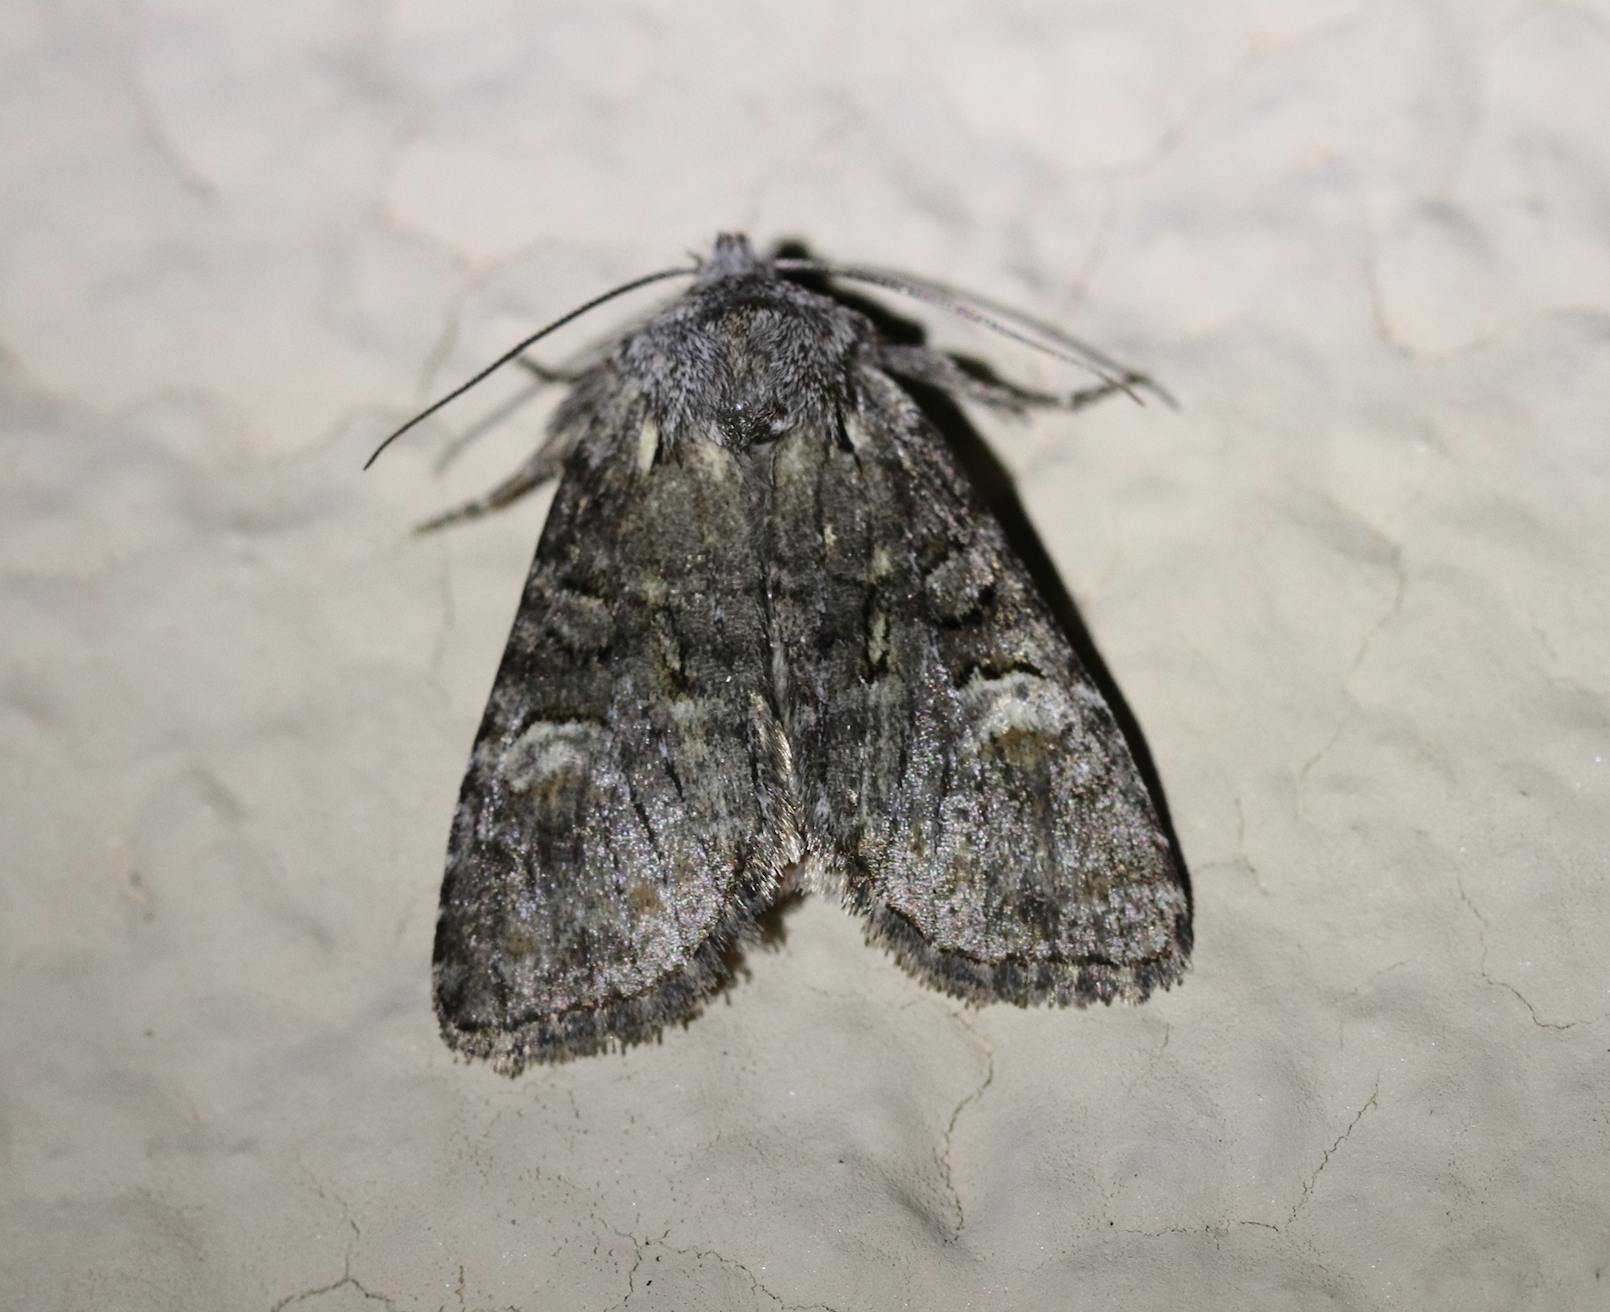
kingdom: Animalia
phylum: Arthropoda
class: Insecta
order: Lepidoptera
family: Noctuidae
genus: Brachylomia
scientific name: Brachylomia viminalis
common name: Minor shoulder-knot
